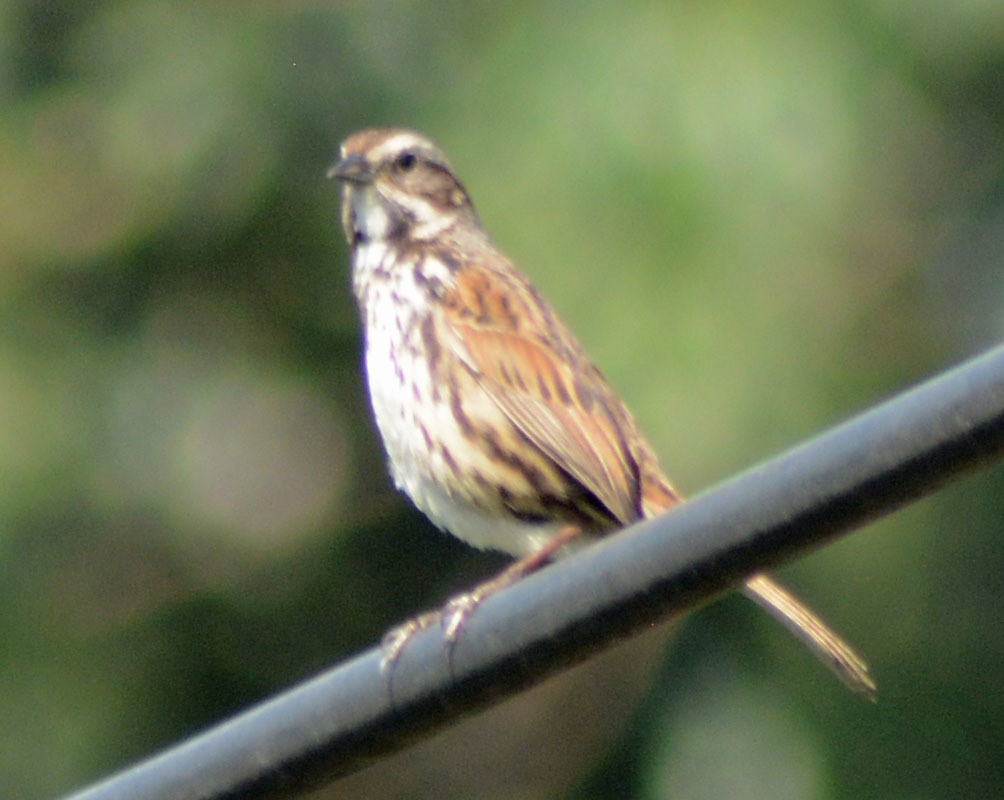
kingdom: Animalia
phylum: Chordata
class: Aves
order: Passeriformes
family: Passerellidae
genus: Melospiza
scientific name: Melospiza melodia
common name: Song sparrow
